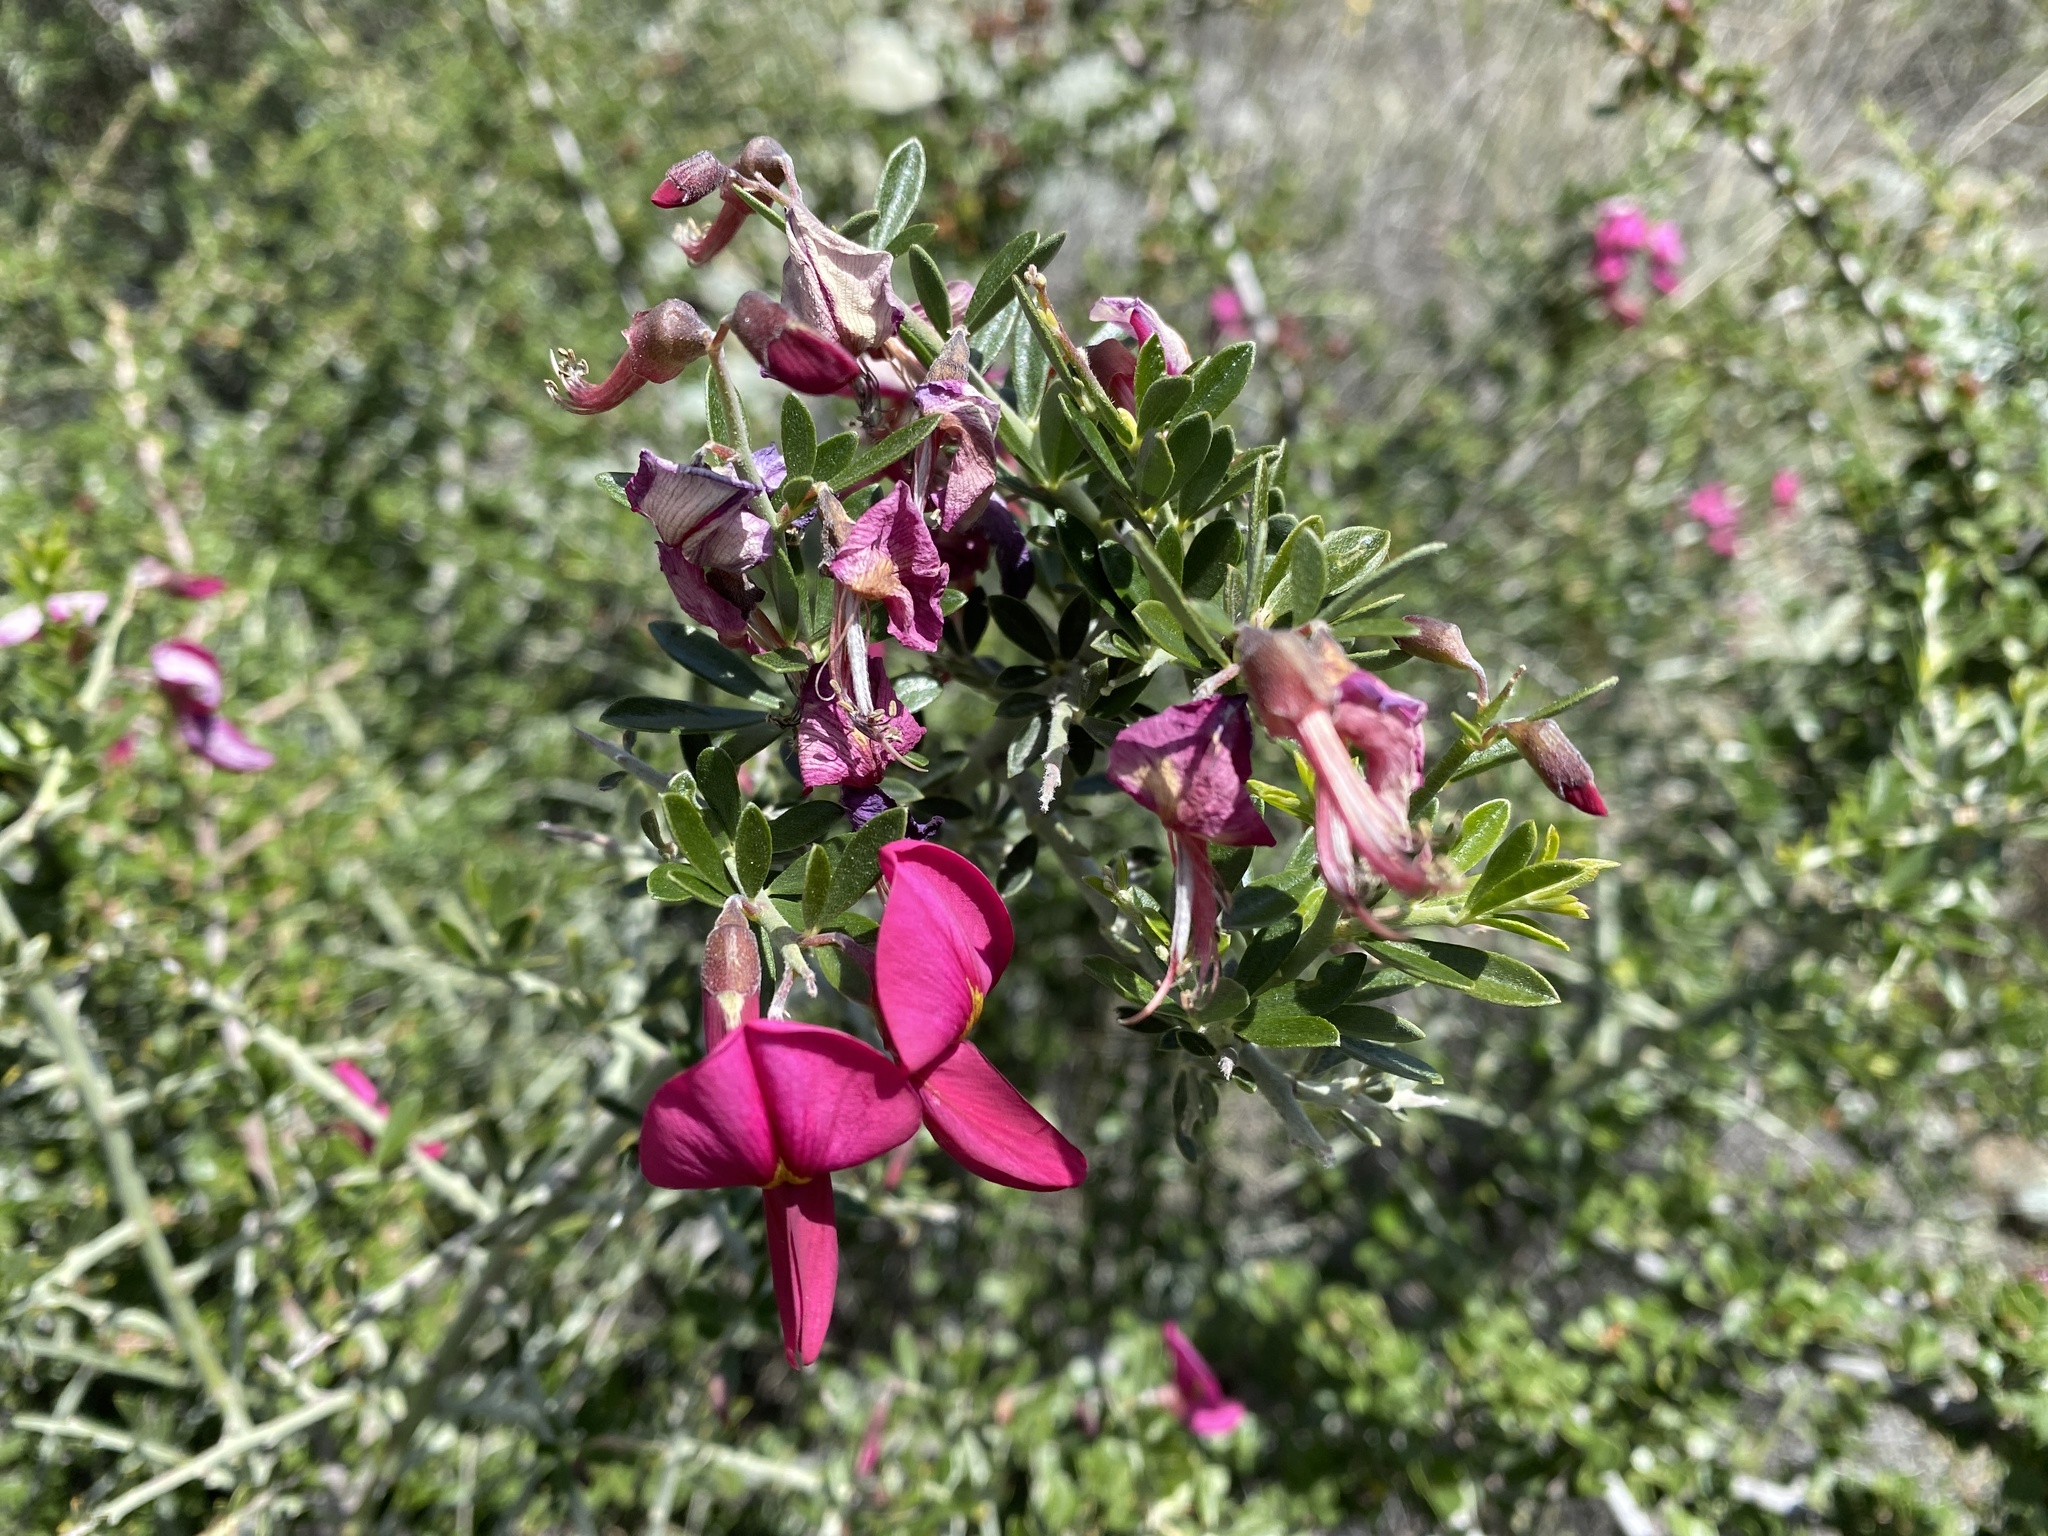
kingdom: Plantae
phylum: Tracheophyta
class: Magnoliopsida
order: Fabales
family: Fabaceae
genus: Pickeringia
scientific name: Pickeringia montana
